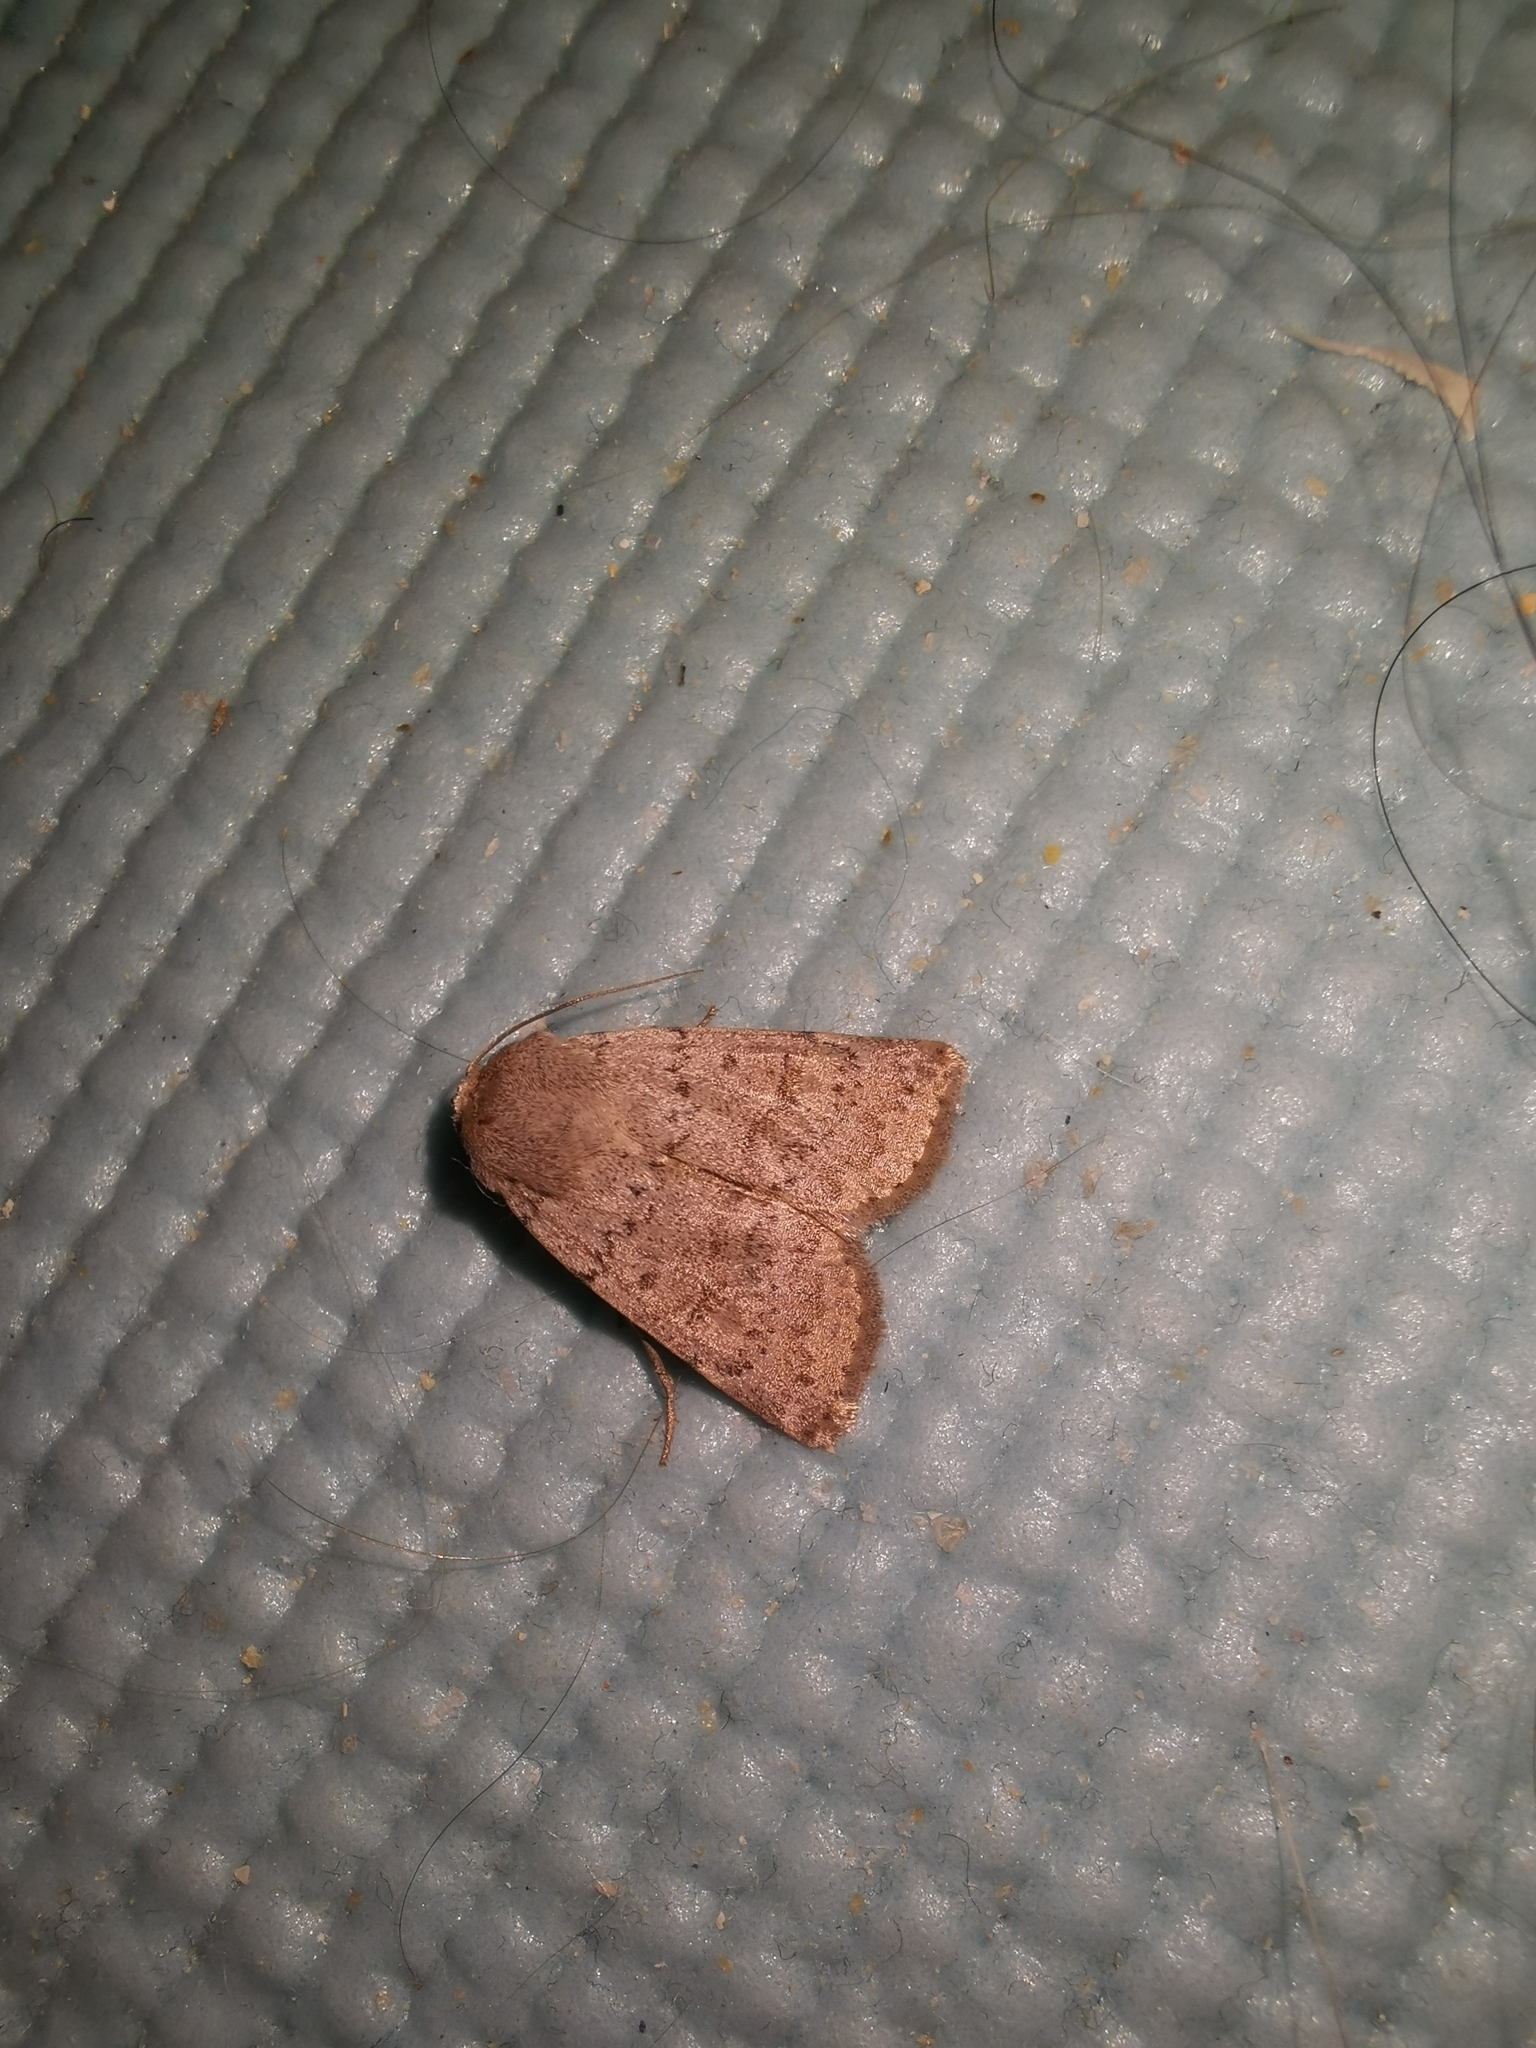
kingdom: Animalia
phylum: Arthropoda
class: Insecta
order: Lepidoptera
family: Noctuidae
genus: Hoplodrina
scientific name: Hoplodrina respersa
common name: Sprinkled rustic
